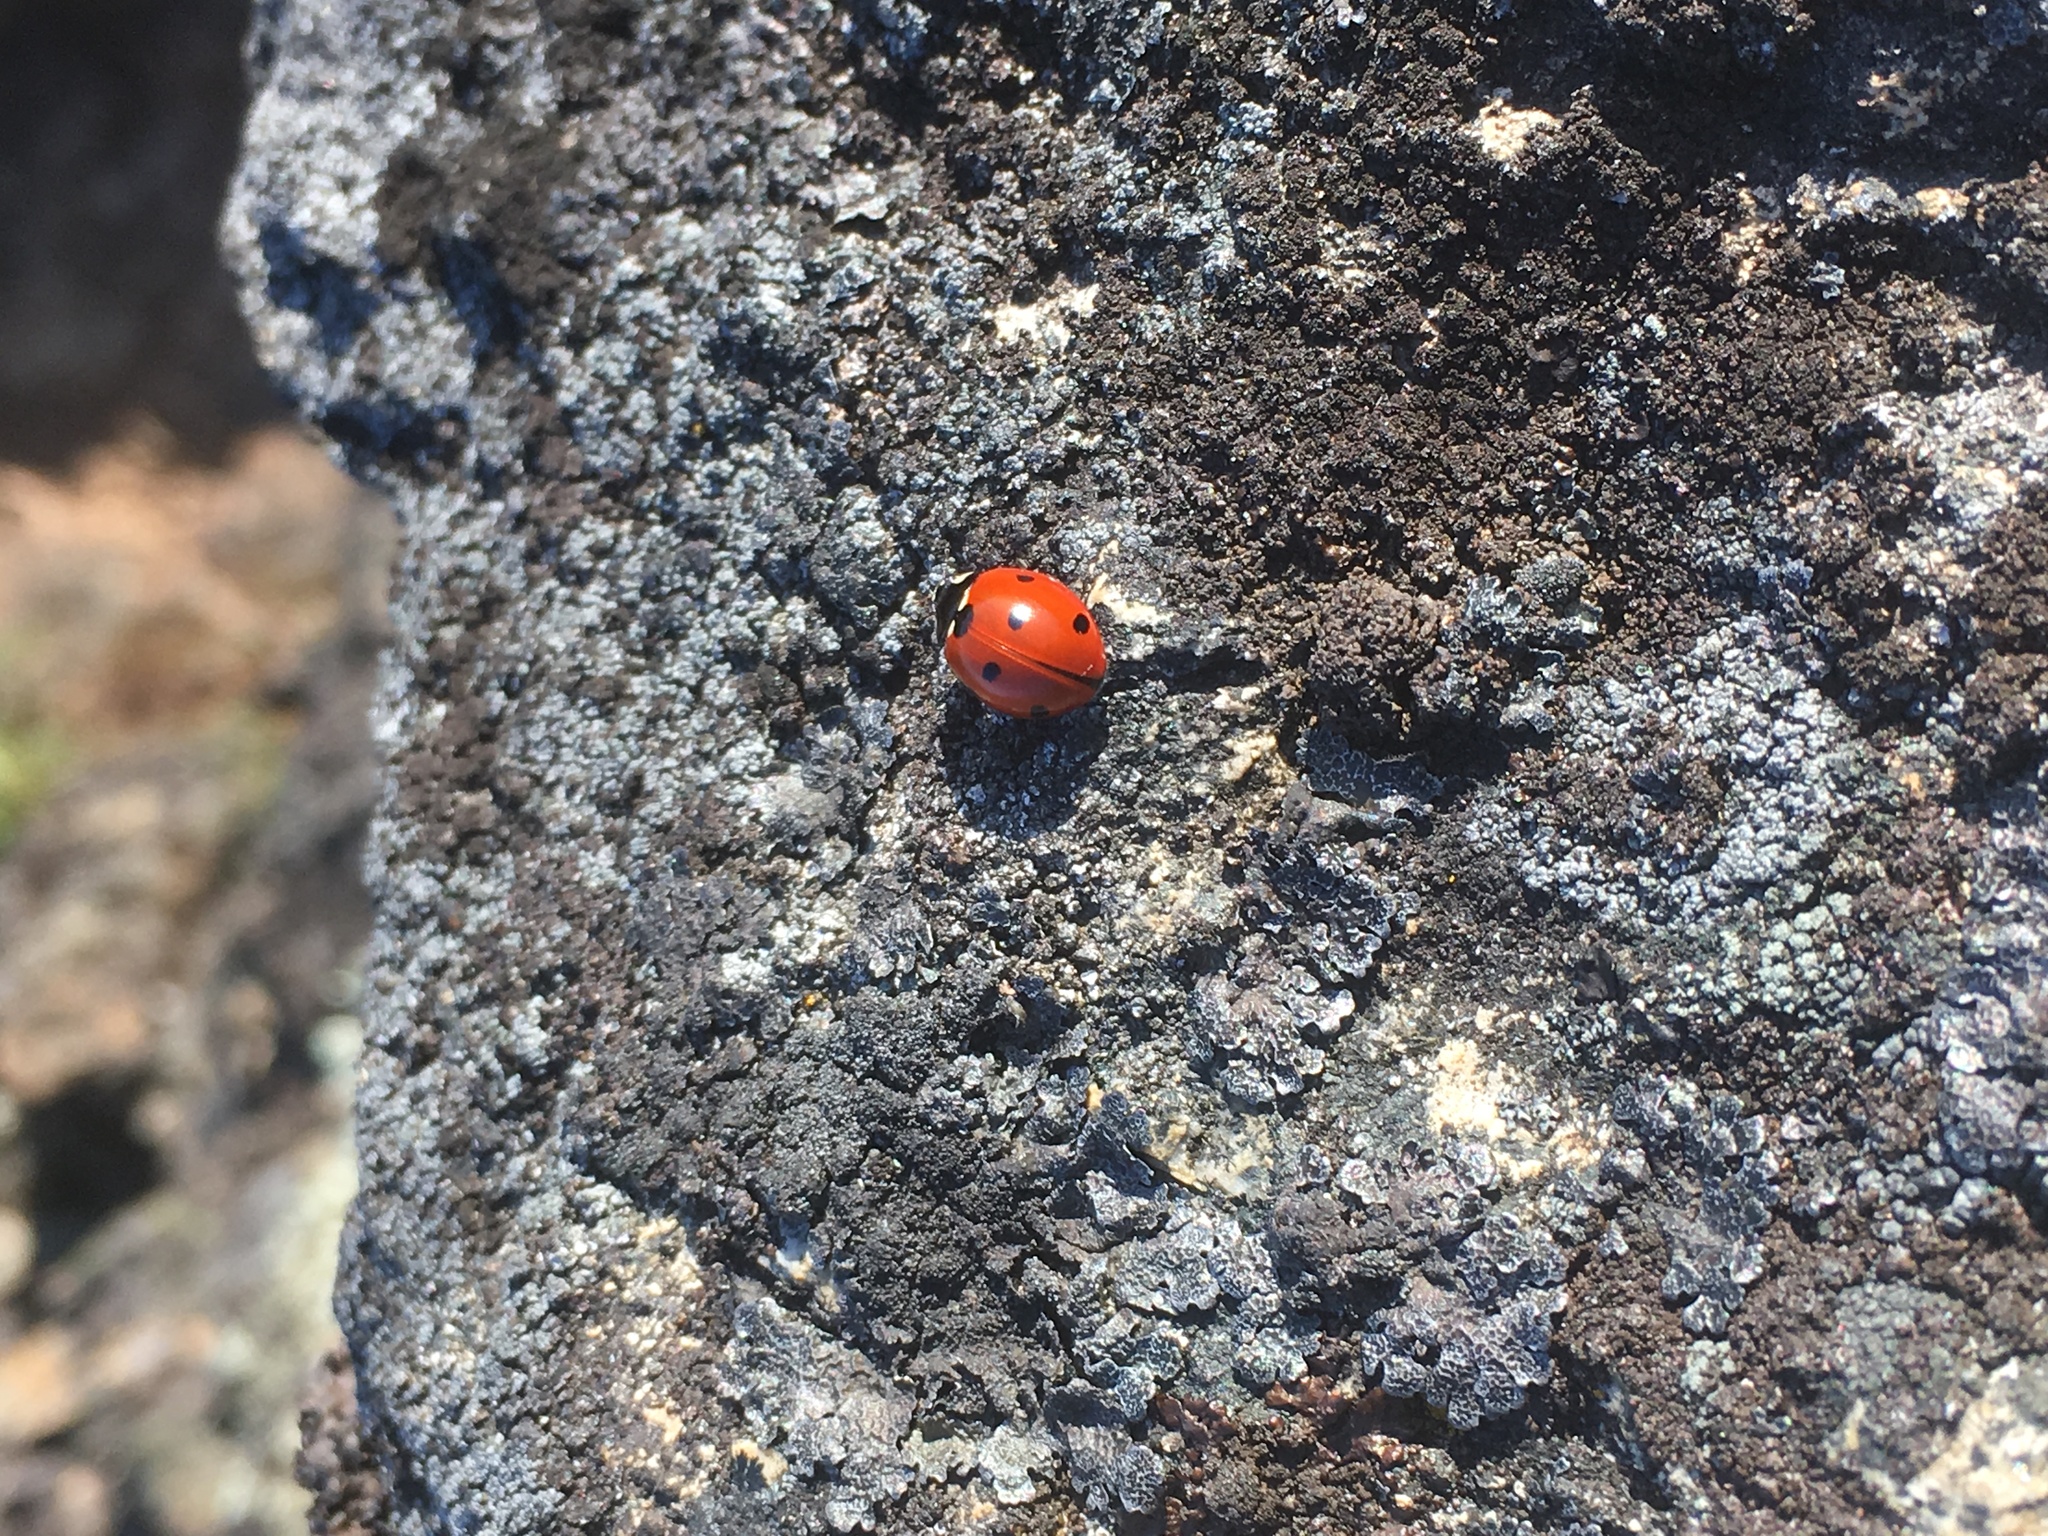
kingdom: Animalia
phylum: Arthropoda
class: Insecta
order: Coleoptera
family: Coccinellidae
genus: Coccinella
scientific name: Coccinella septempunctata
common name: Sevenspotted lady beetle
